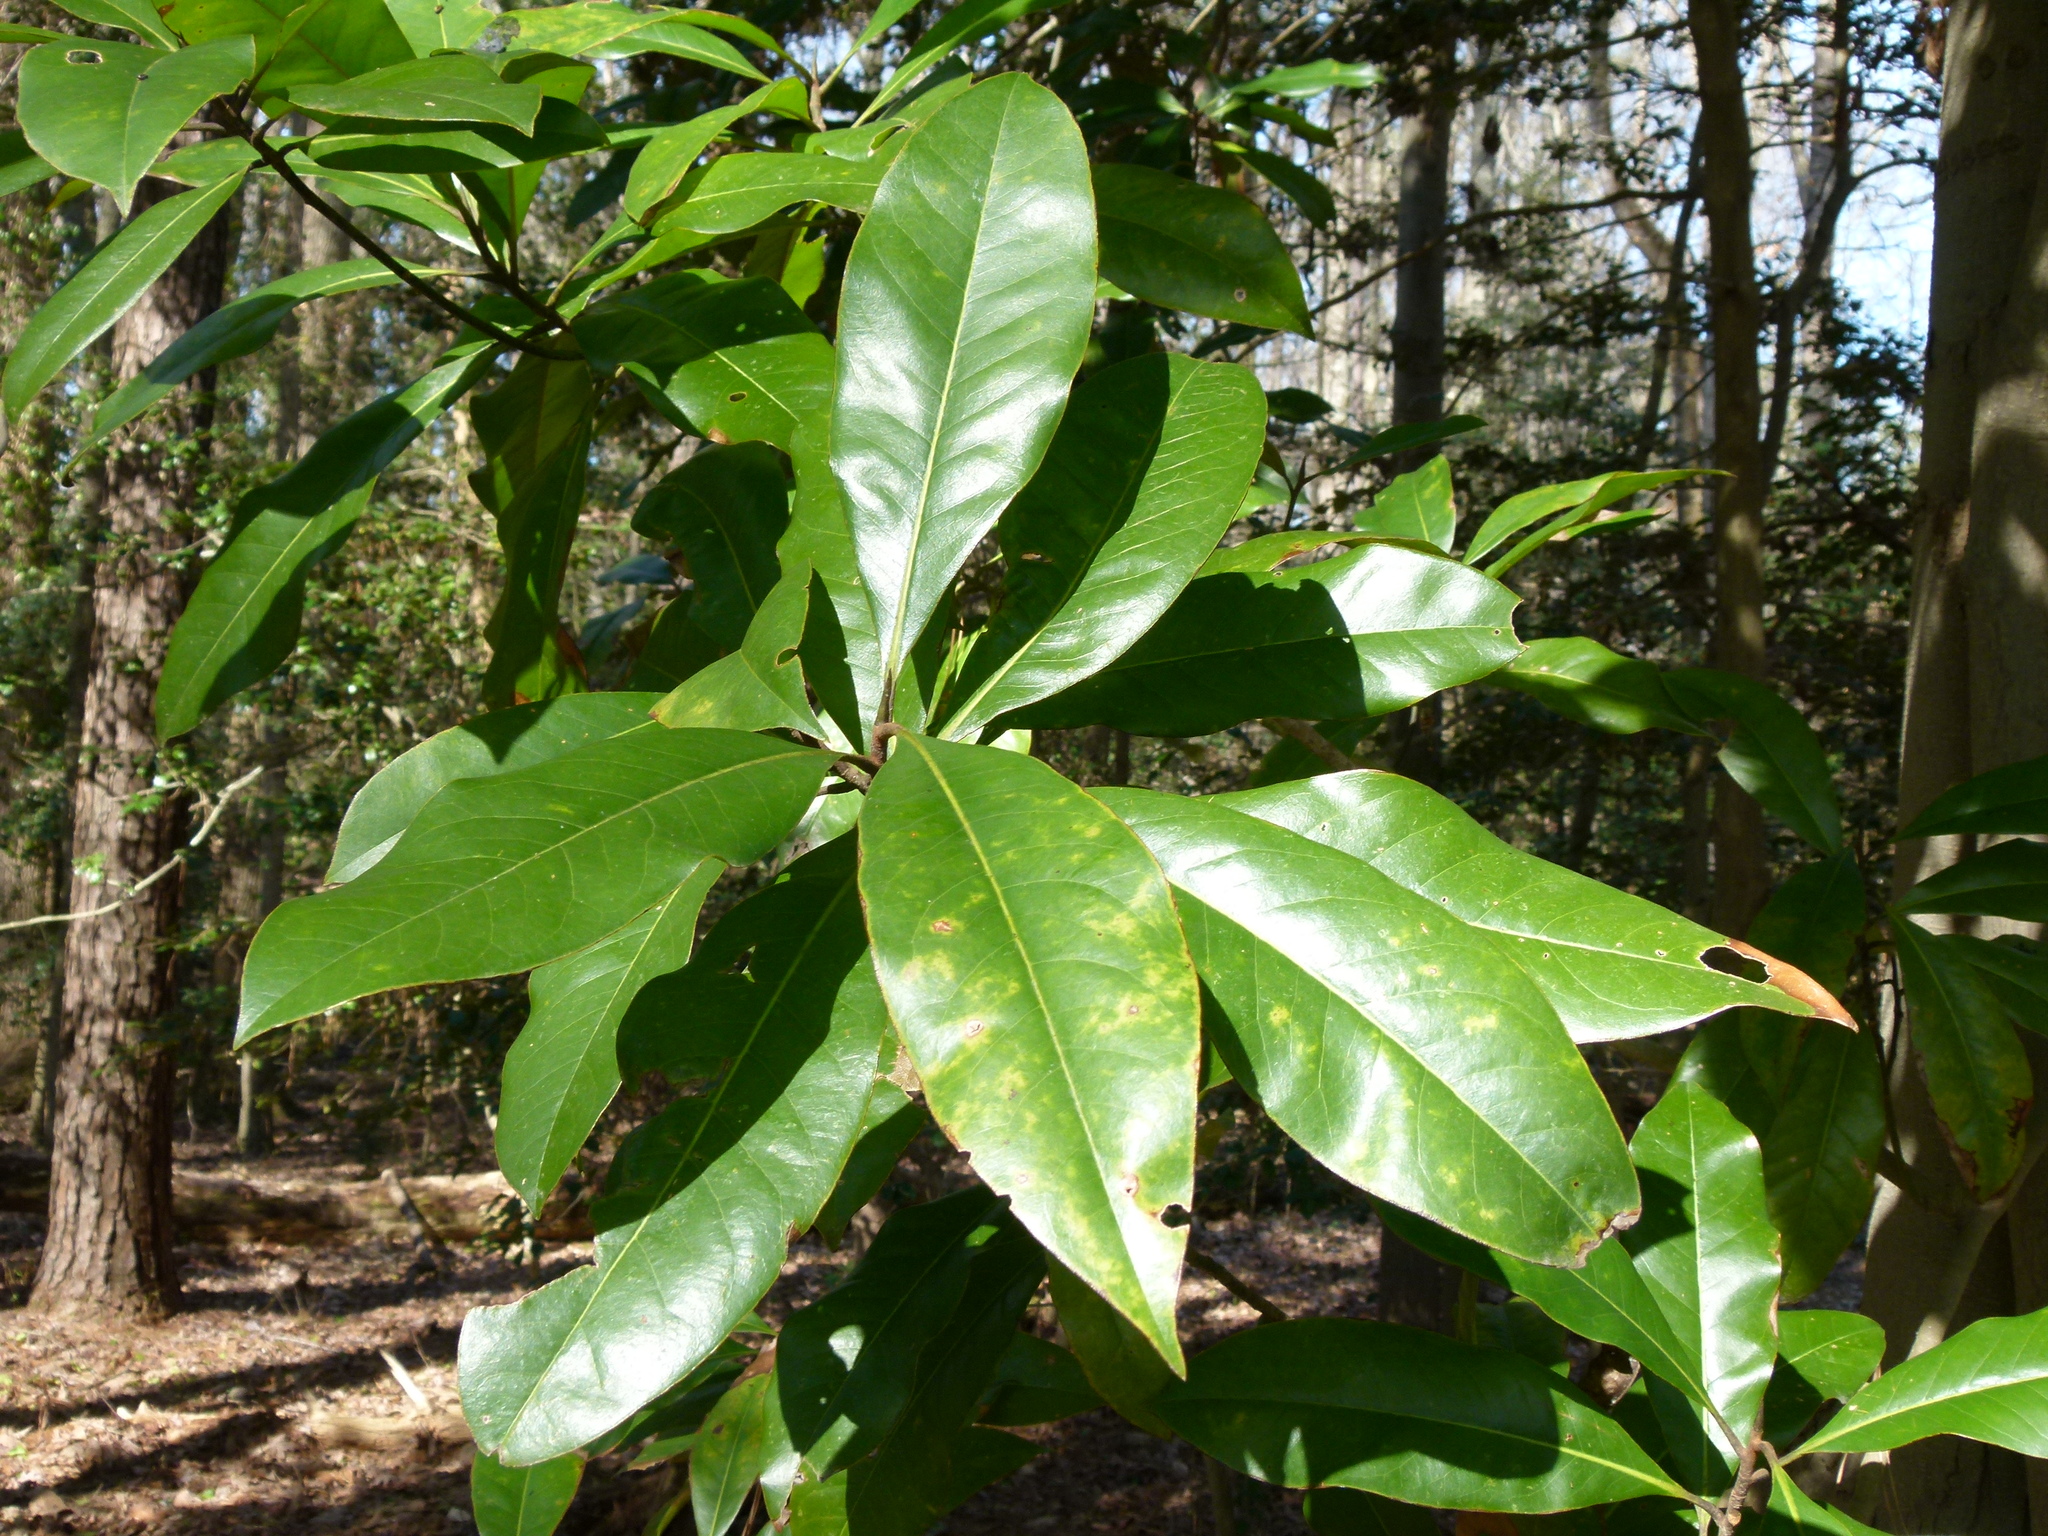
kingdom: Plantae
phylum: Tracheophyta
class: Magnoliopsida
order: Magnoliales
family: Magnoliaceae
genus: Magnolia
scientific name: Magnolia grandiflora
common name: Southern magnolia
